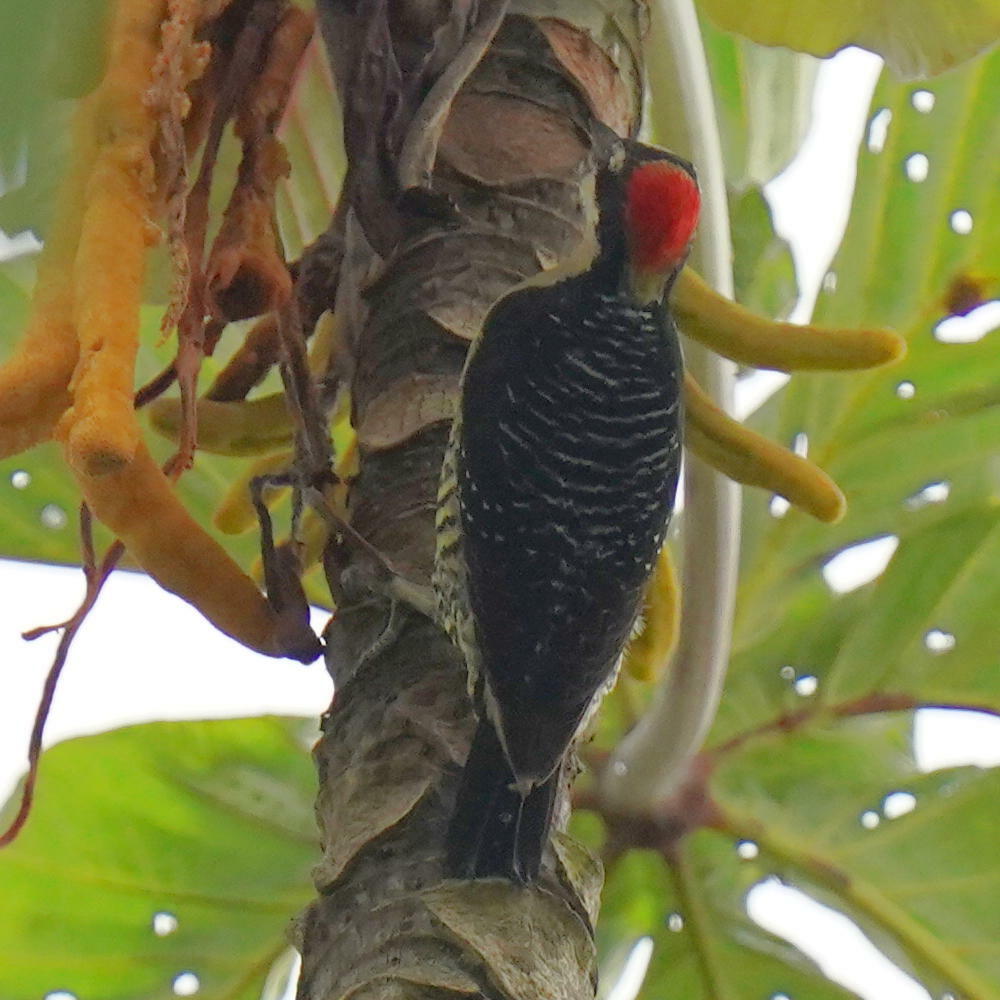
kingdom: Animalia
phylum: Chordata
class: Aves
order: Piciformes
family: Picidae
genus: Melanerpes
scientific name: Melanerpes pucherani
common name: Black-cheeked woodpecker
